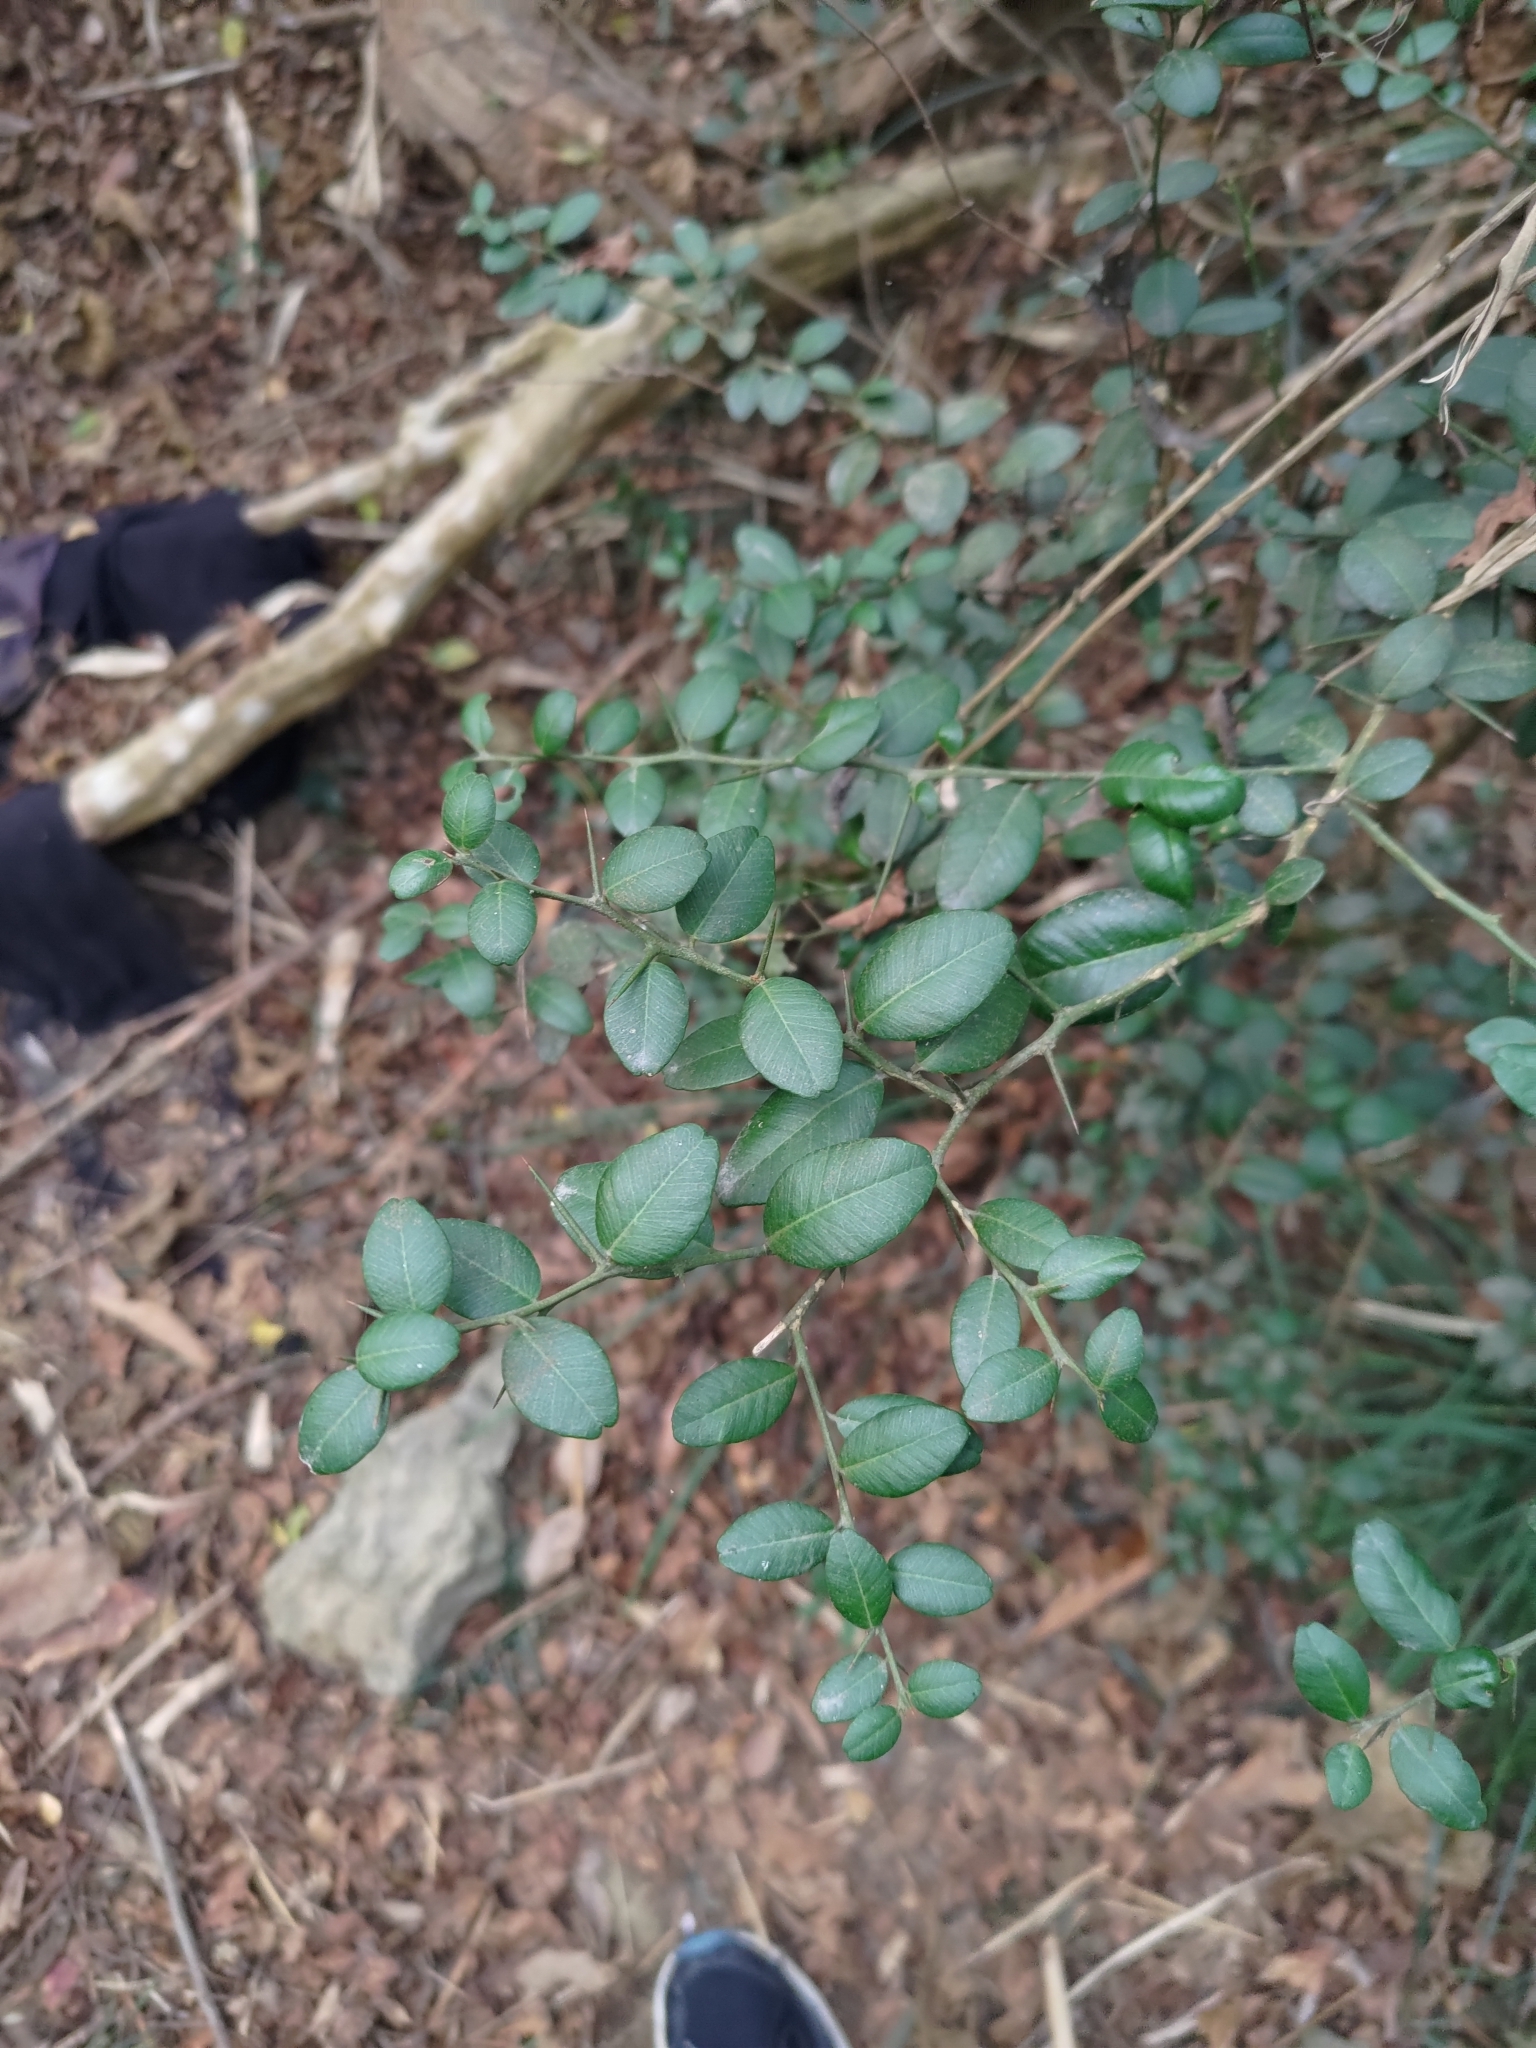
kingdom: Plantae
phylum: Tracheophyta
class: Magnoliopsida
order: Sapindales
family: Rutaceae
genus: Atalantia
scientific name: Atalantia buxifolia
